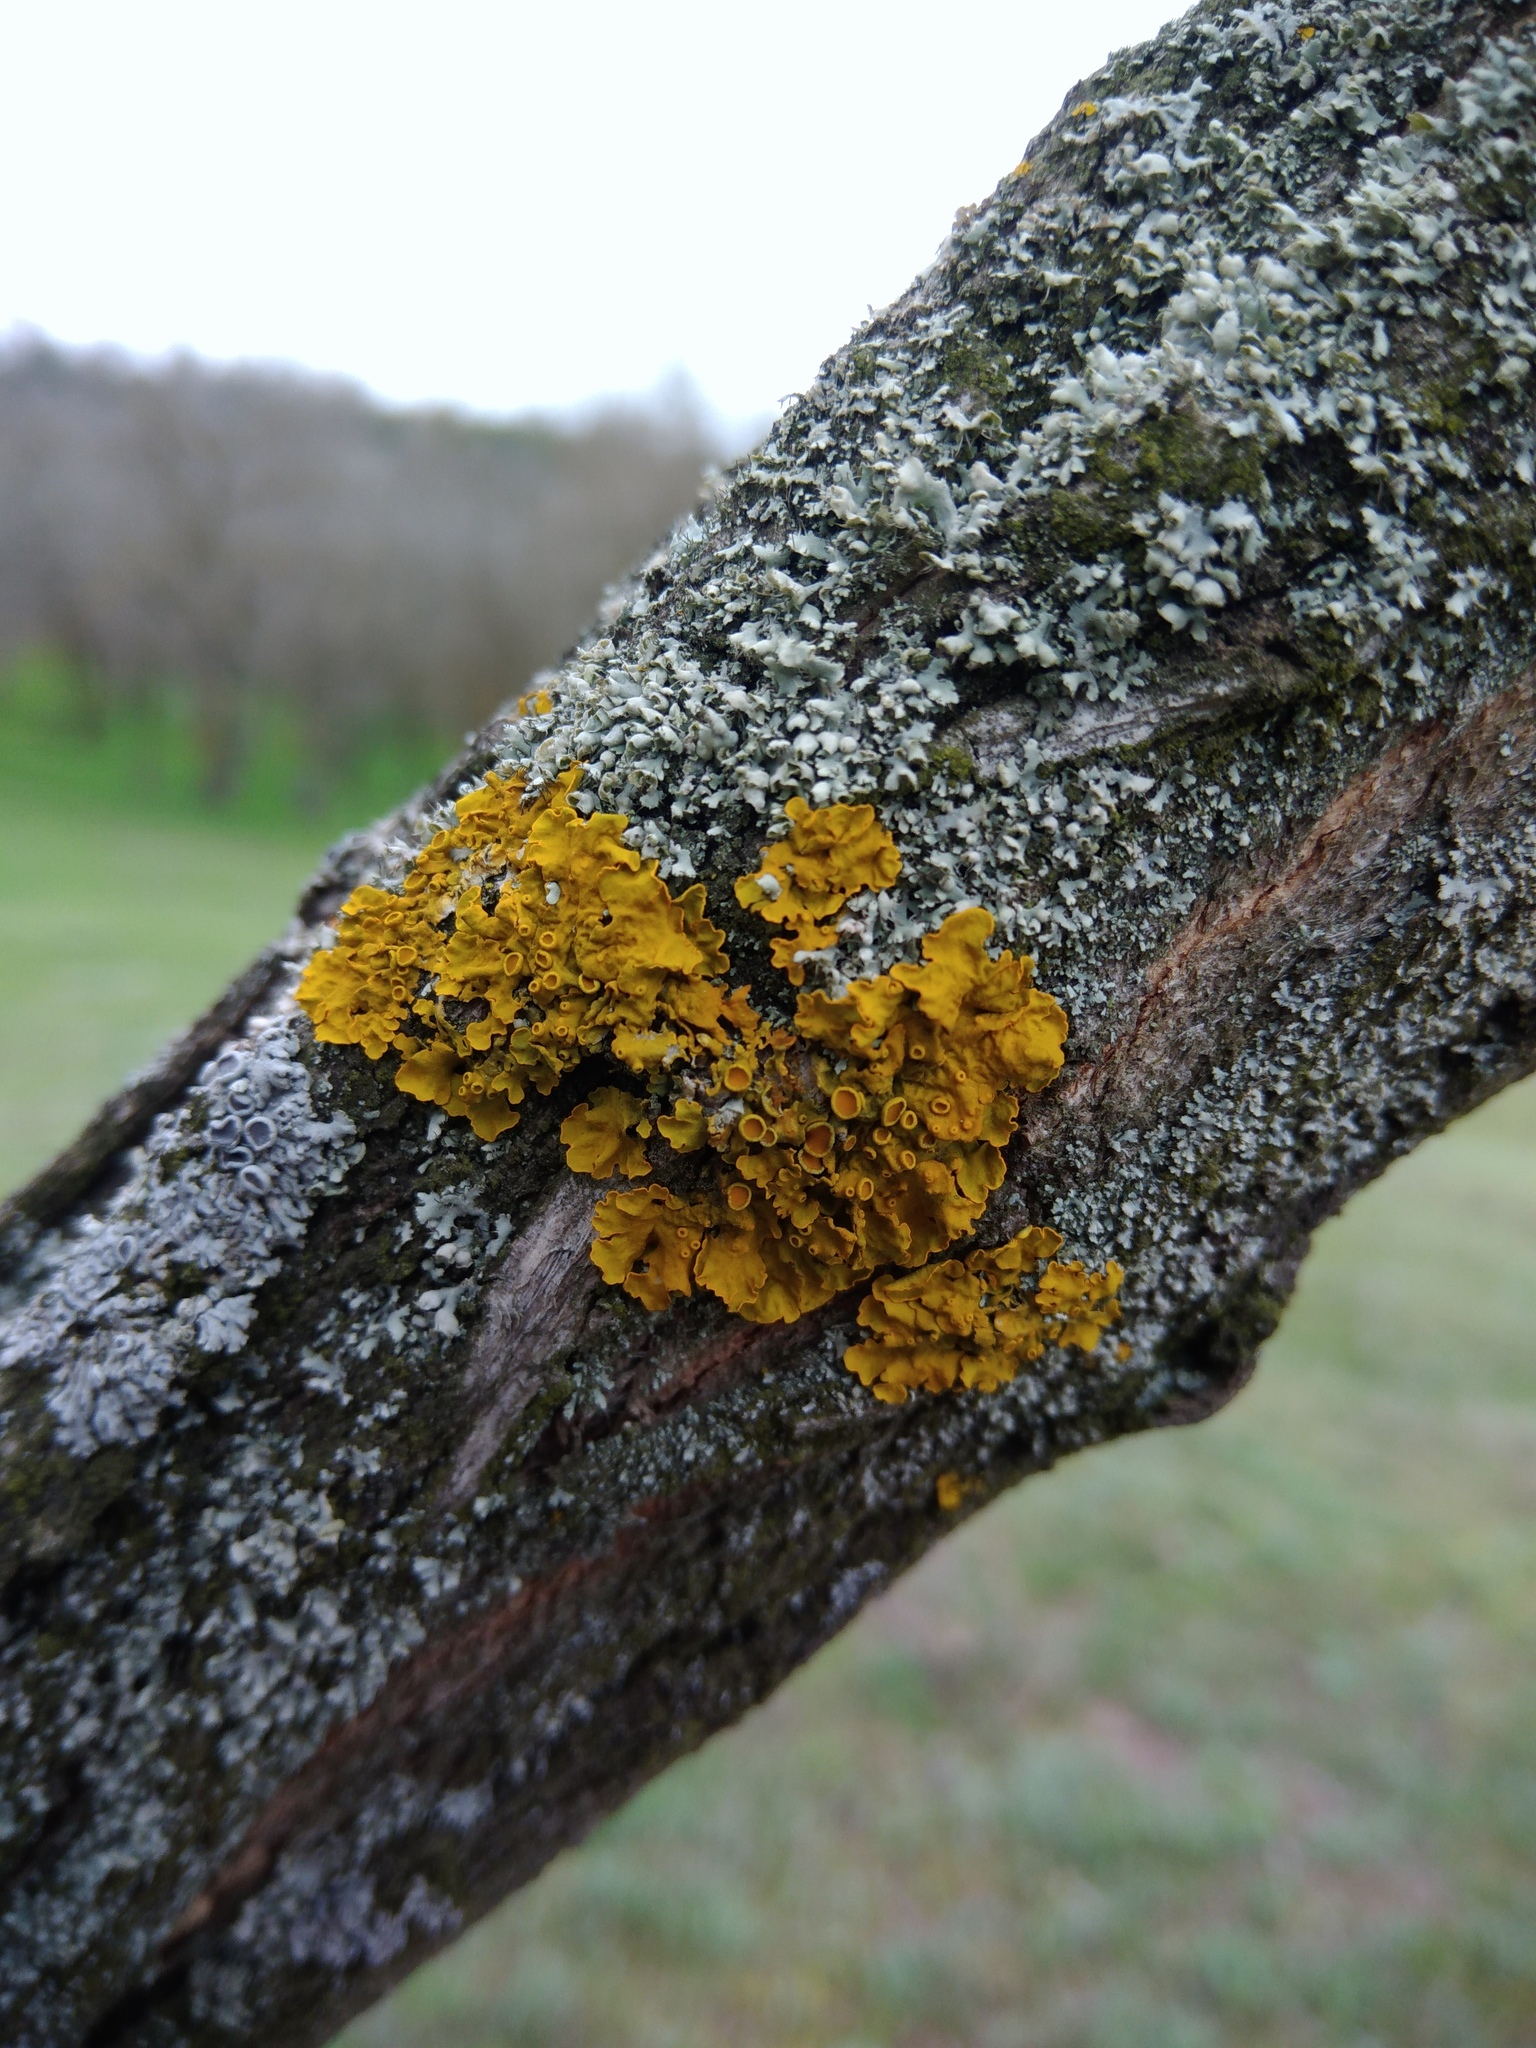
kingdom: Fungi
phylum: Ascomycota
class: Lecanoromycetes
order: Teloschistales
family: Teloschistaceae
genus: Xanthoria
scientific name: Xanthoria parietina
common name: Common orange lichen
